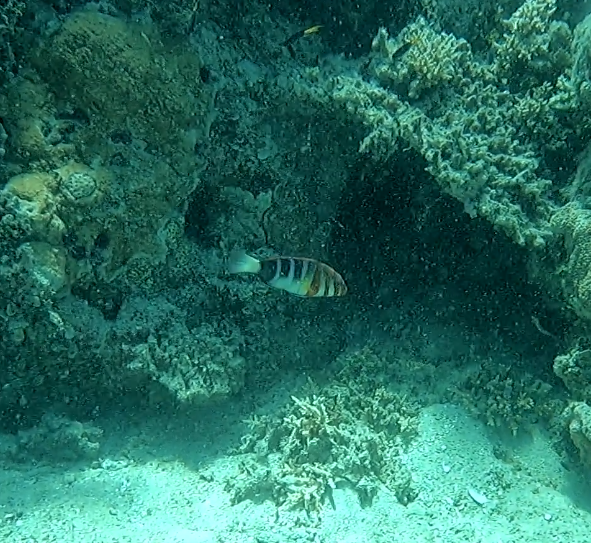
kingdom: Animalia
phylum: Chordata
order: Perciformes
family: Labridae
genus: Choerodon
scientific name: Choerodon fasciatus
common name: Harlequin tuskfish
